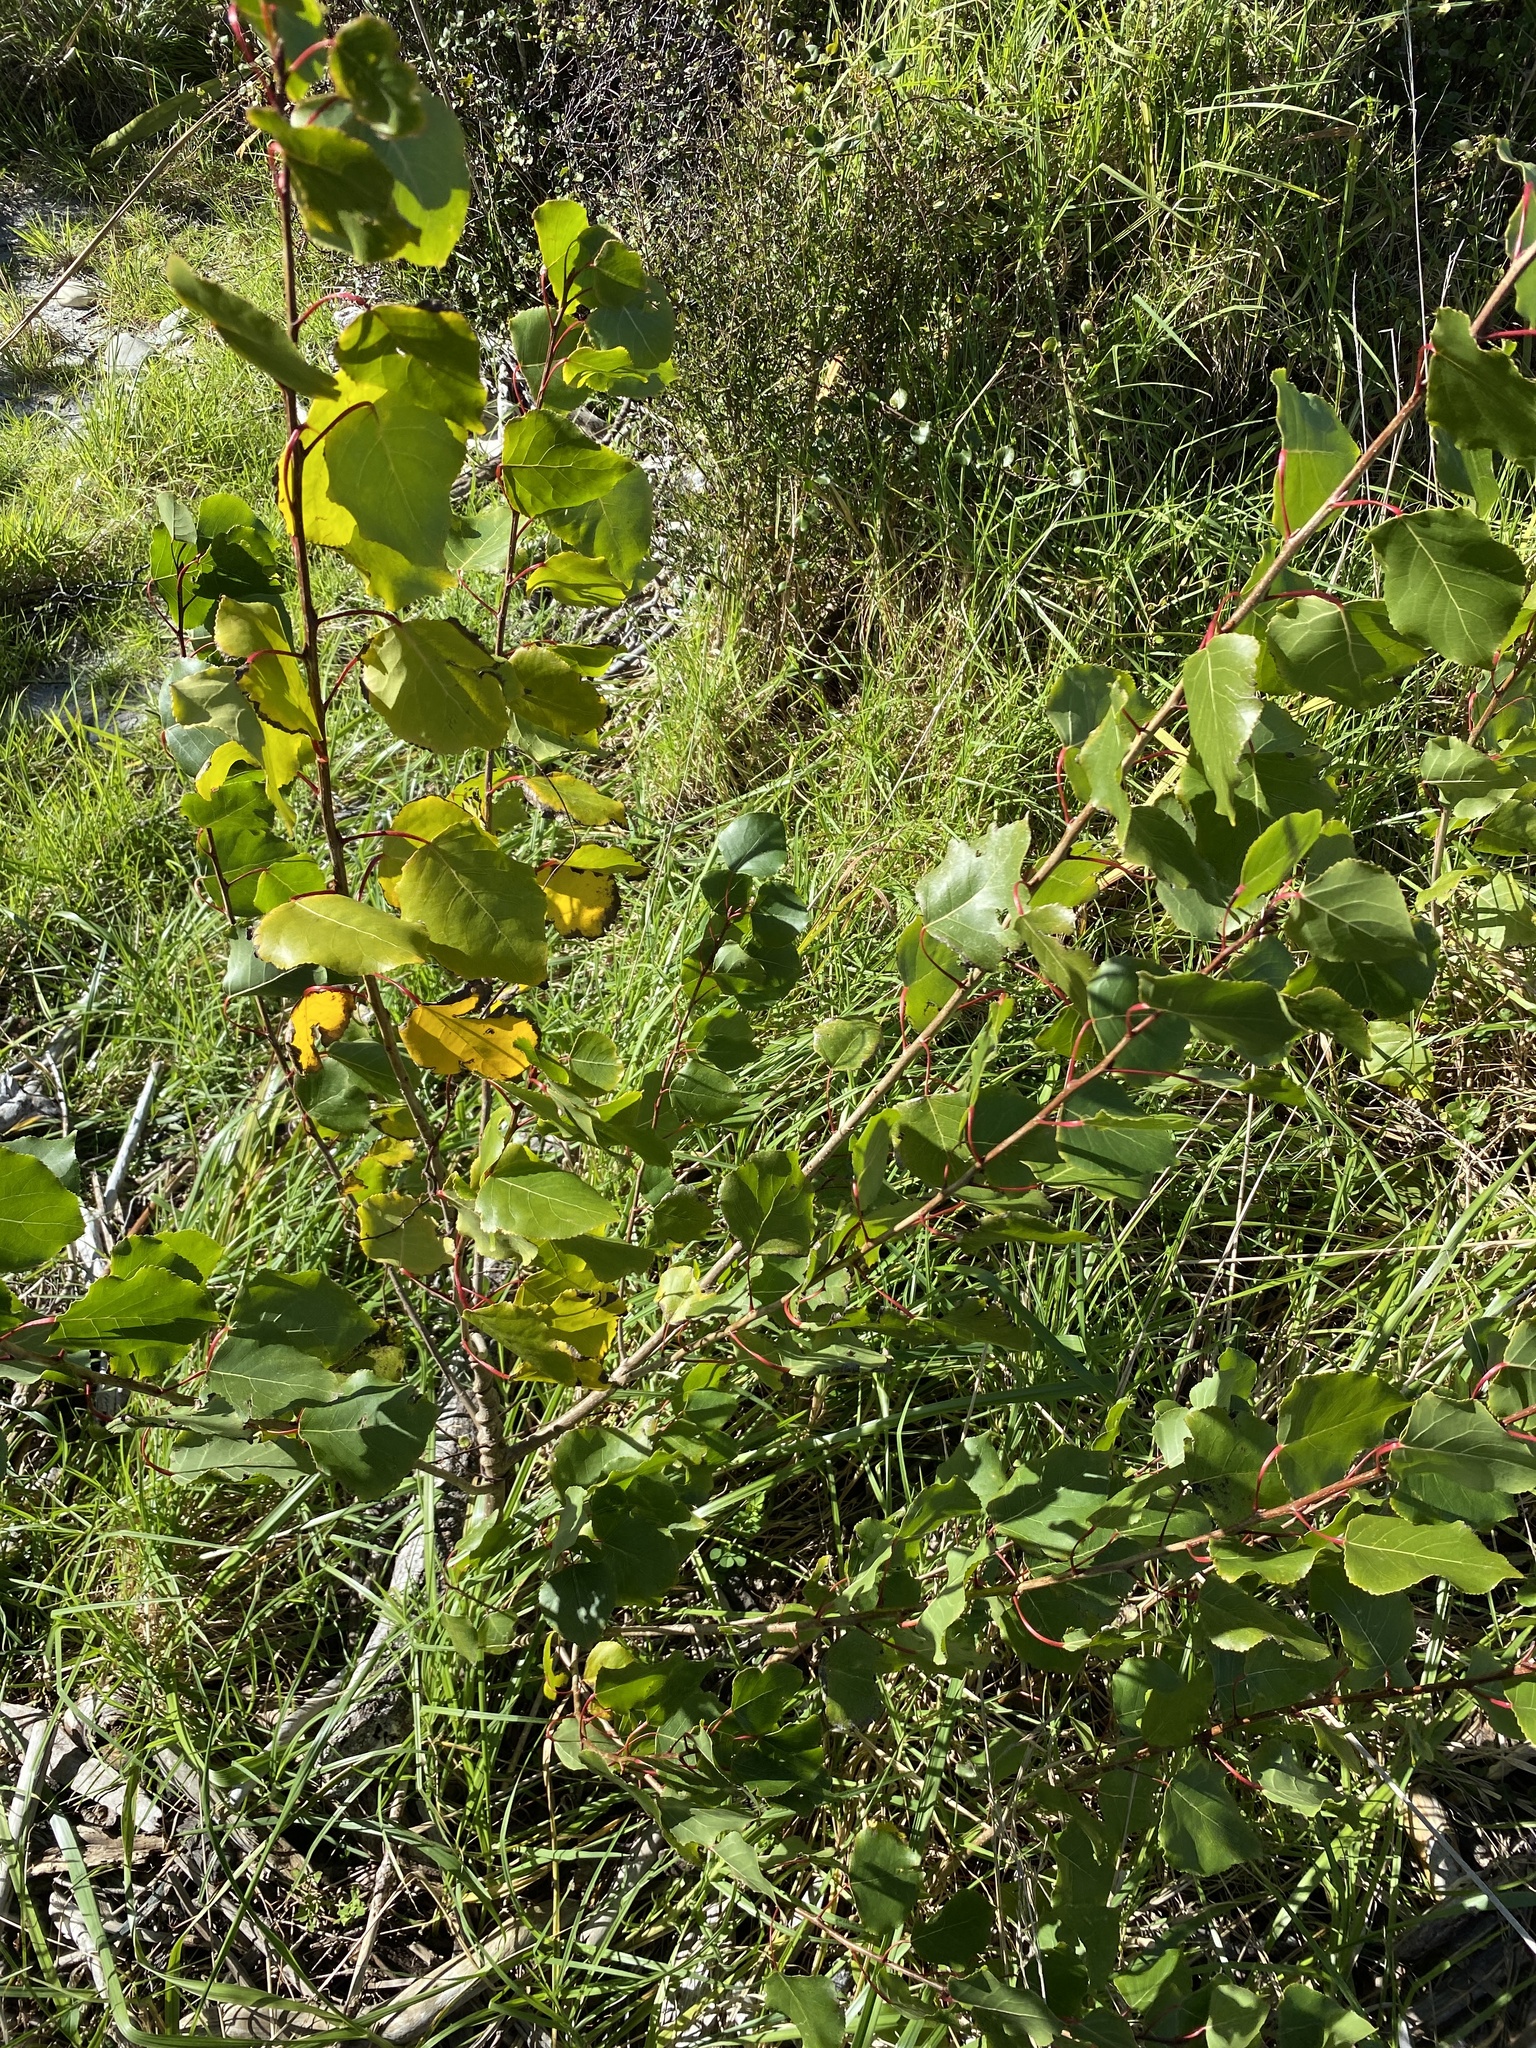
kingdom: Plantae
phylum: Tracheophyta
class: Magnoliopsida
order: Malpighiales
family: Salicaceae
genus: Populus
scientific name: Populus nigra
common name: Black poplar
